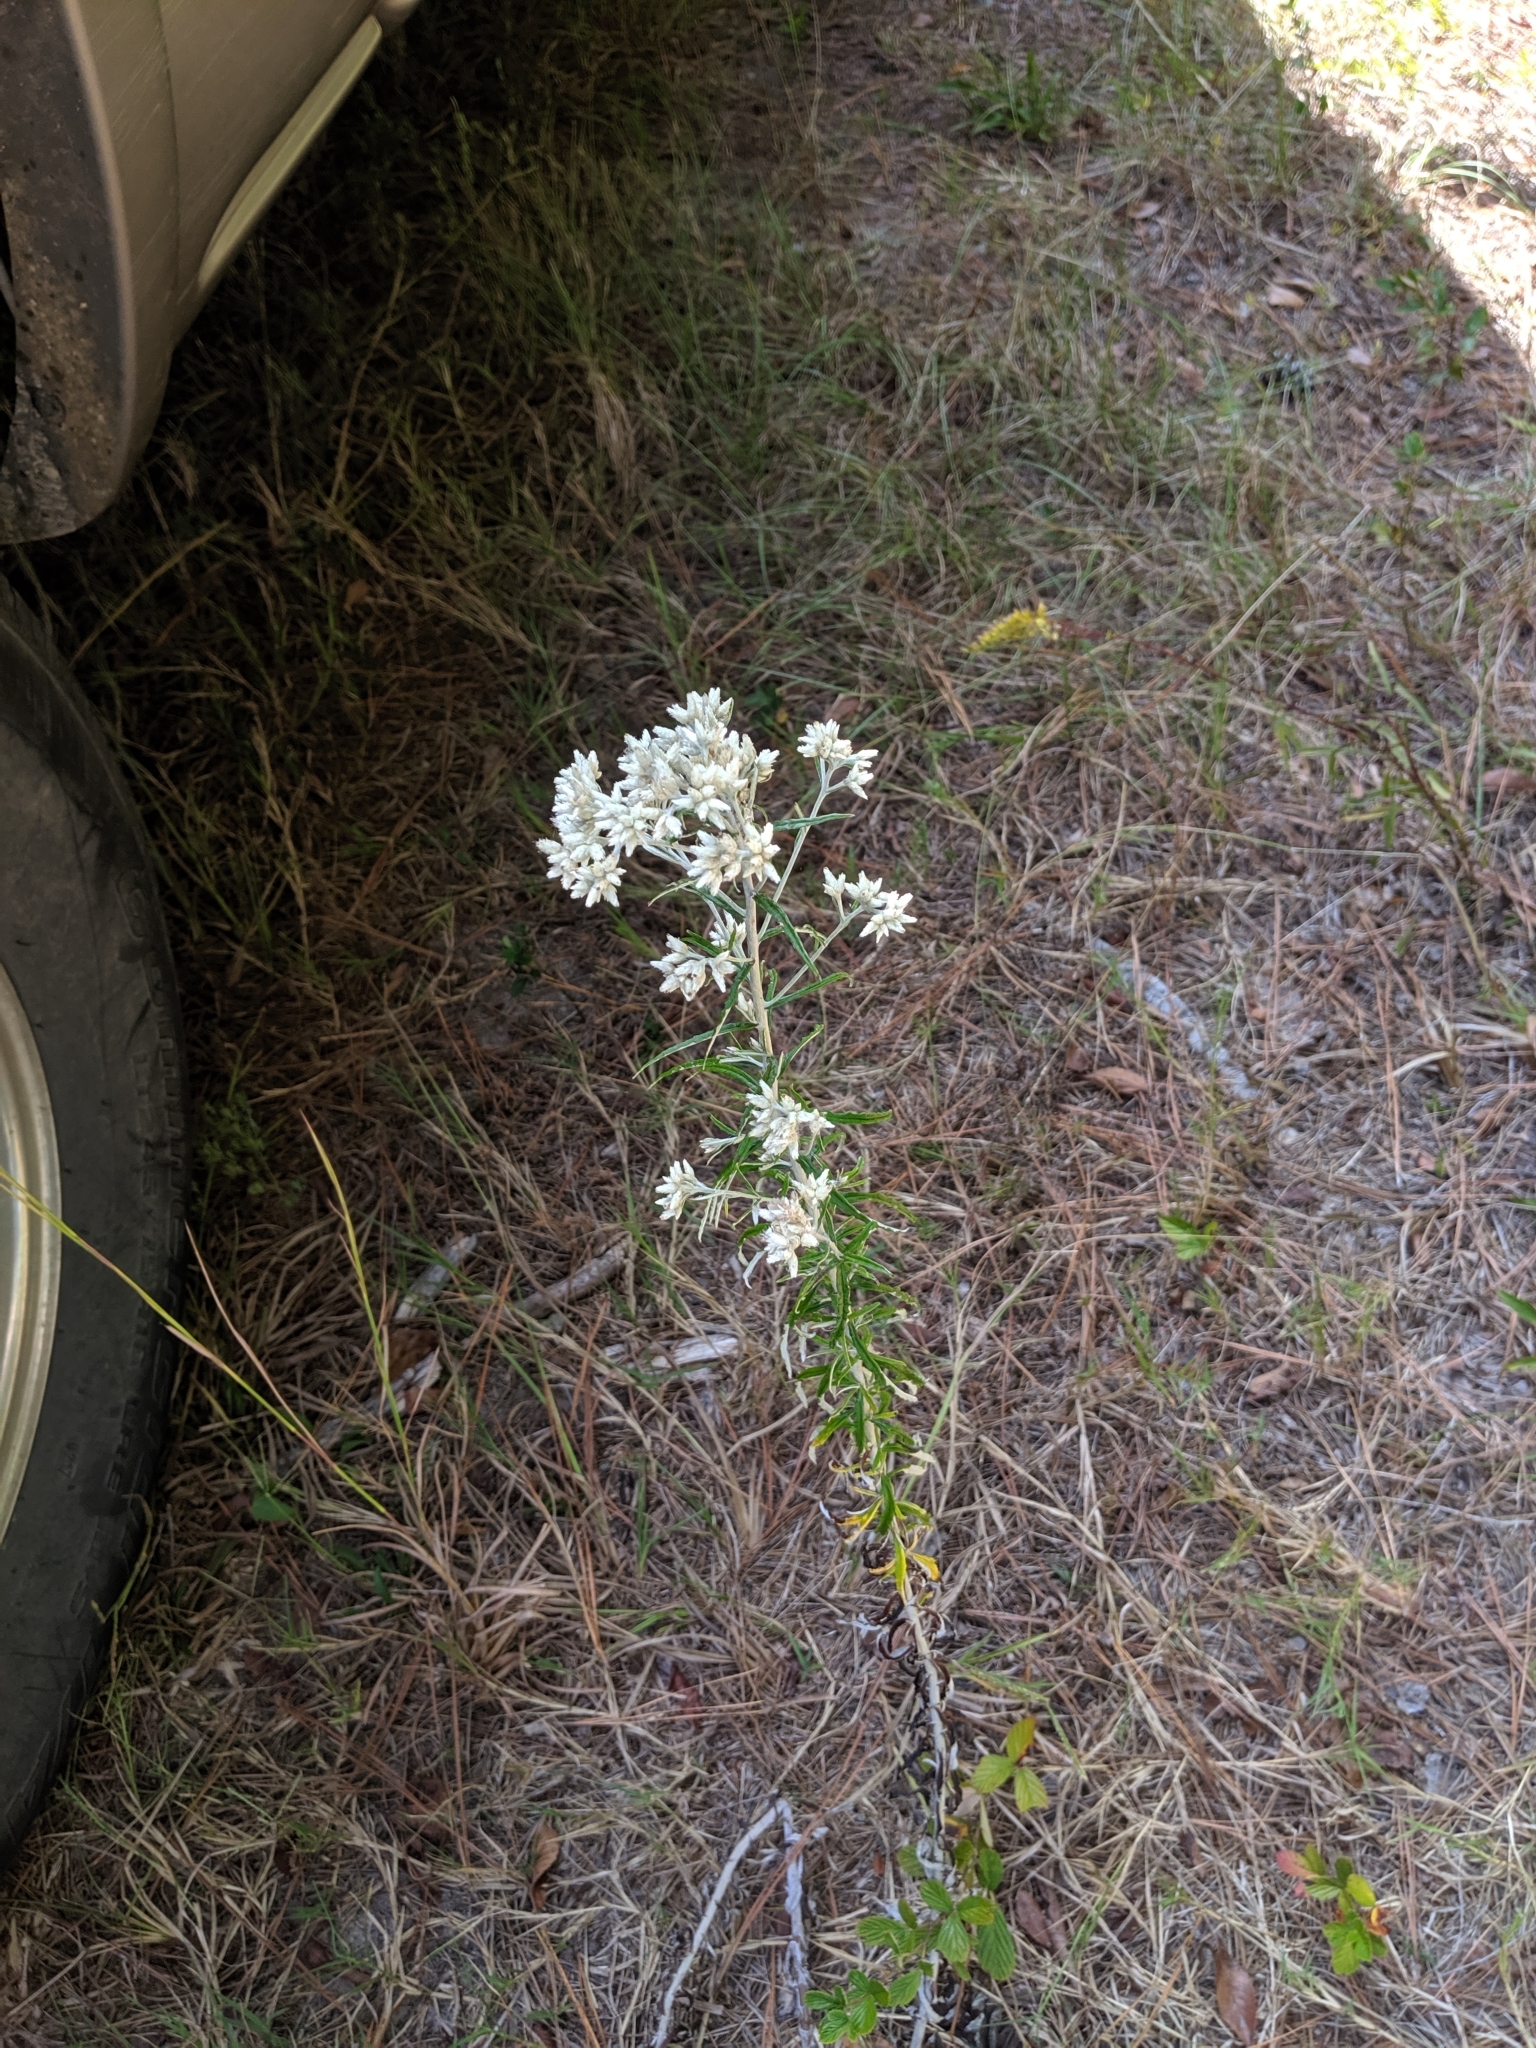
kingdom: Plantae
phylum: Tracheophyta
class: Magnoliopsida
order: Asterales
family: Asteraceae
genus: Pseudognaphalium
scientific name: Pseudognaphalium obtusifolium
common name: Eastern rabbit-tobacco
